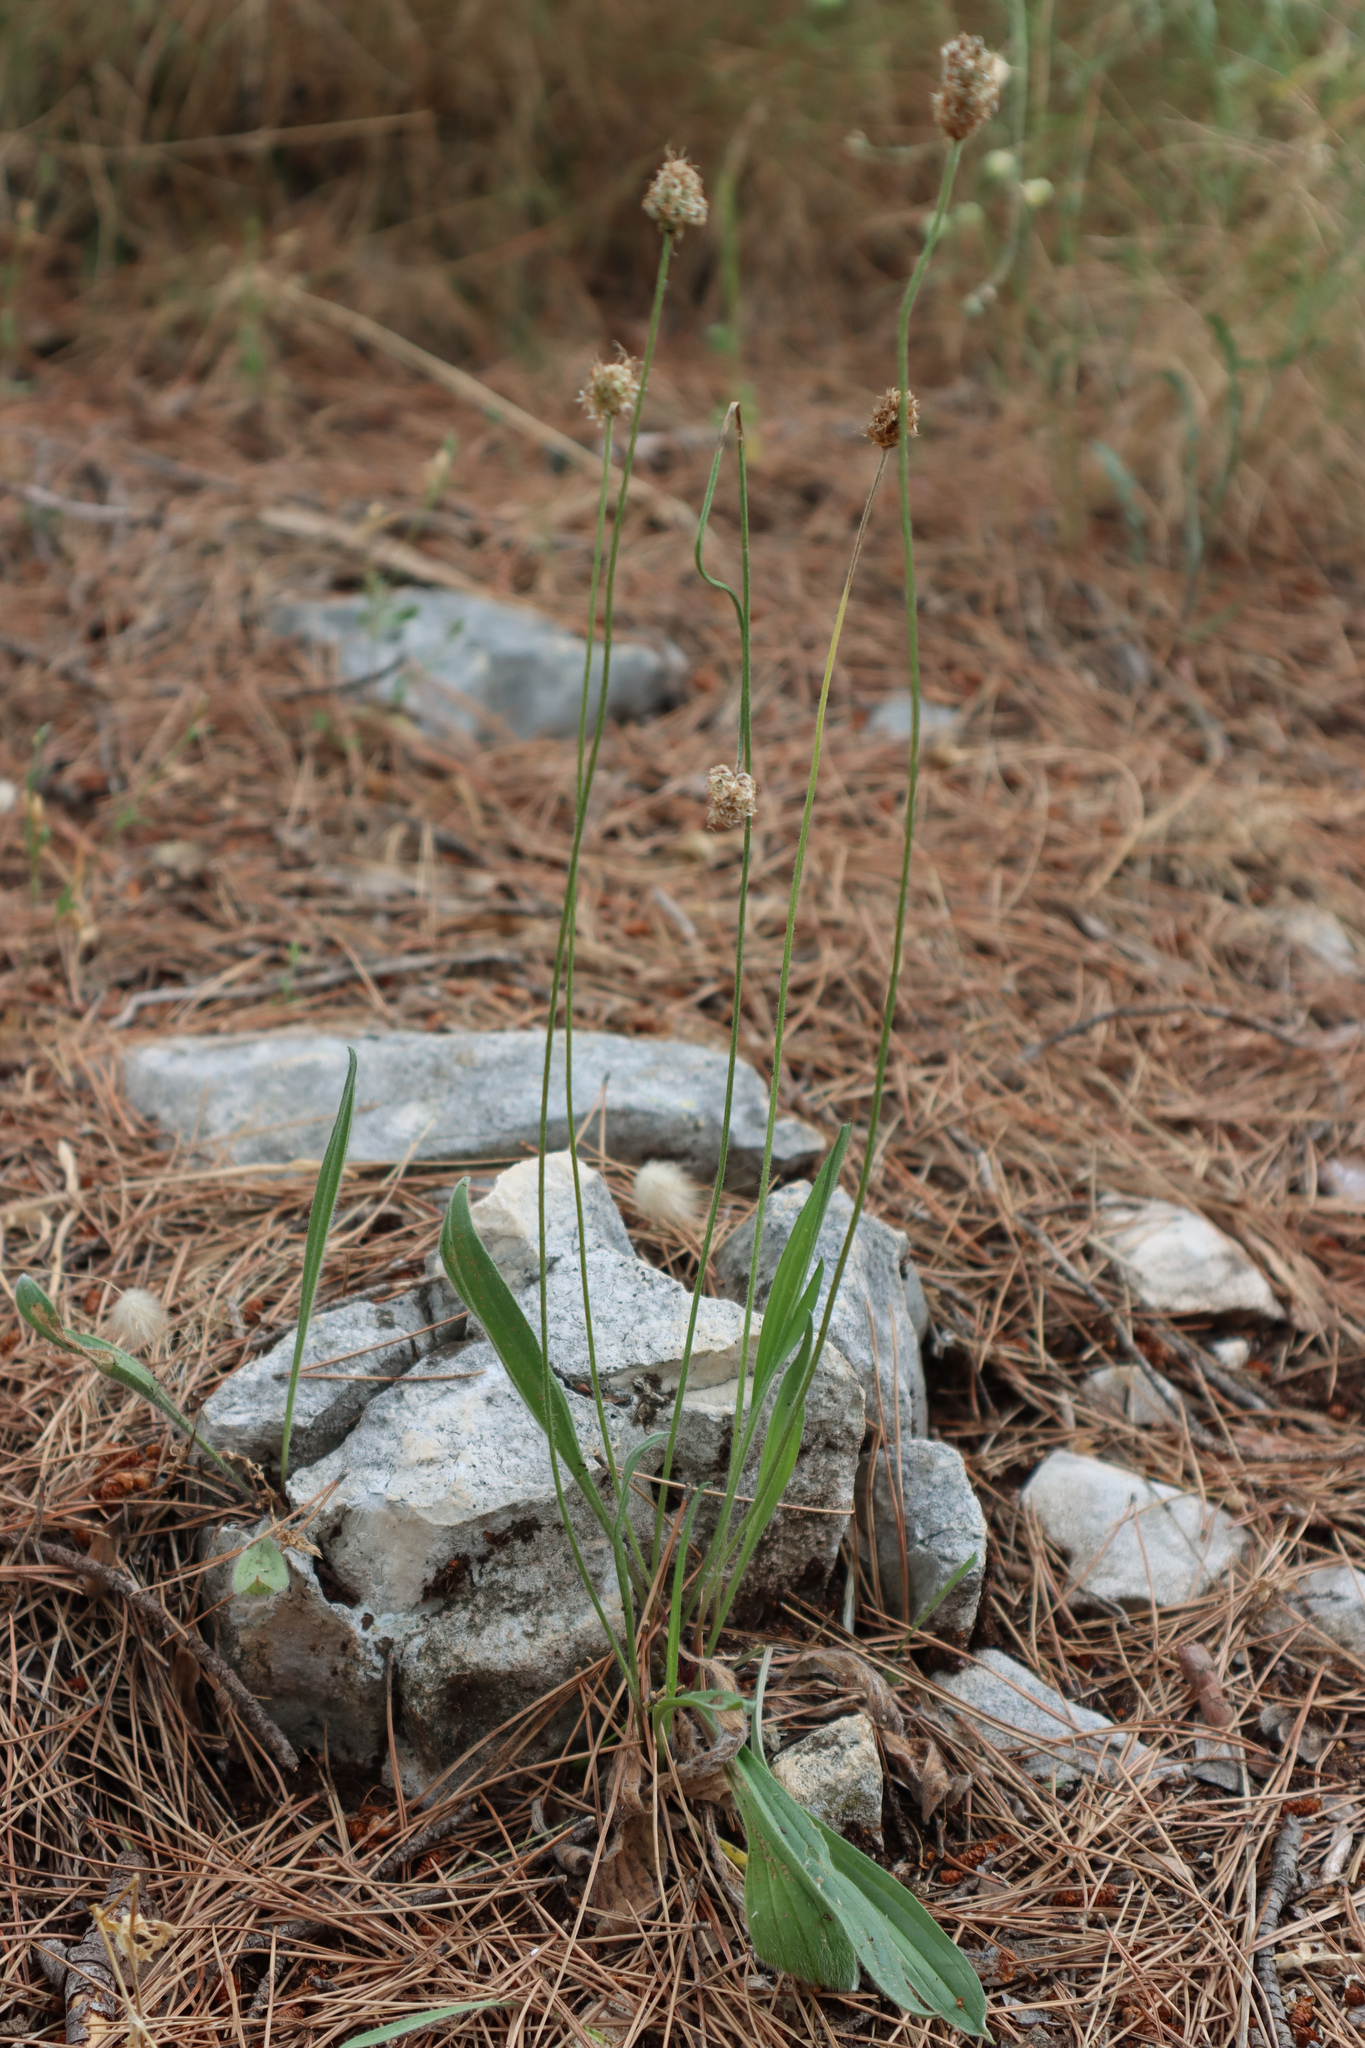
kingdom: Plantae
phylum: Tracheophyta
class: Magnoliopsida
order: Lamiales
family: Plantaginaceae
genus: Plantago
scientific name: Plantago lanceolata
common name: Ribwort plantain
